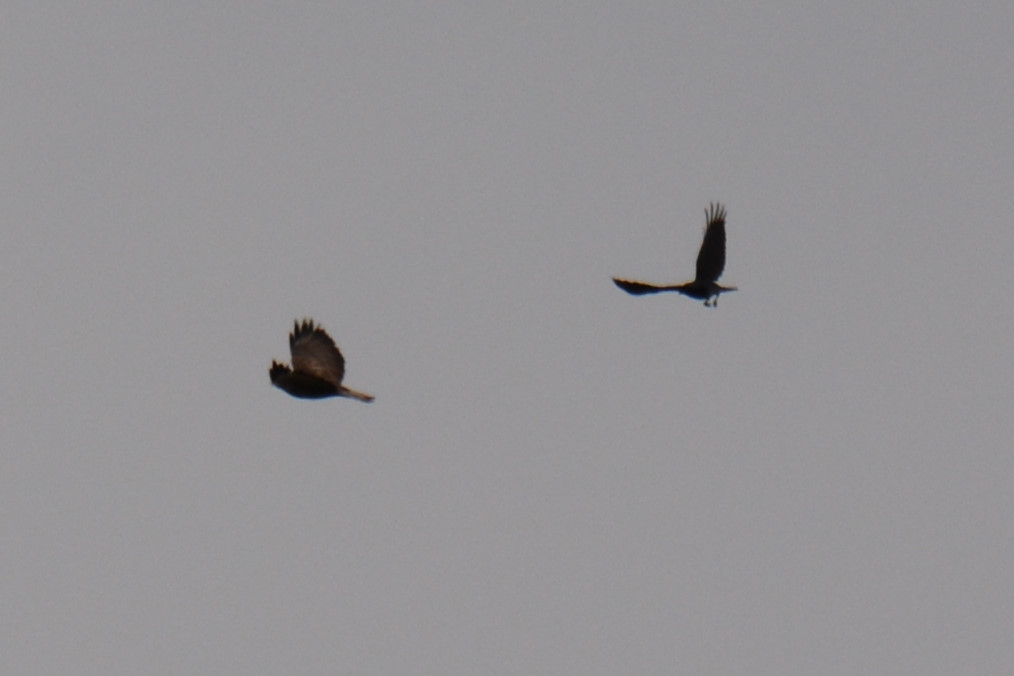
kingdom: Animalia
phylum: Chordata
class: Aves
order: Accipitriformes
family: Accipitridae
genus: Buteo
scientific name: Buteo buteo
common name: Common buzzard
